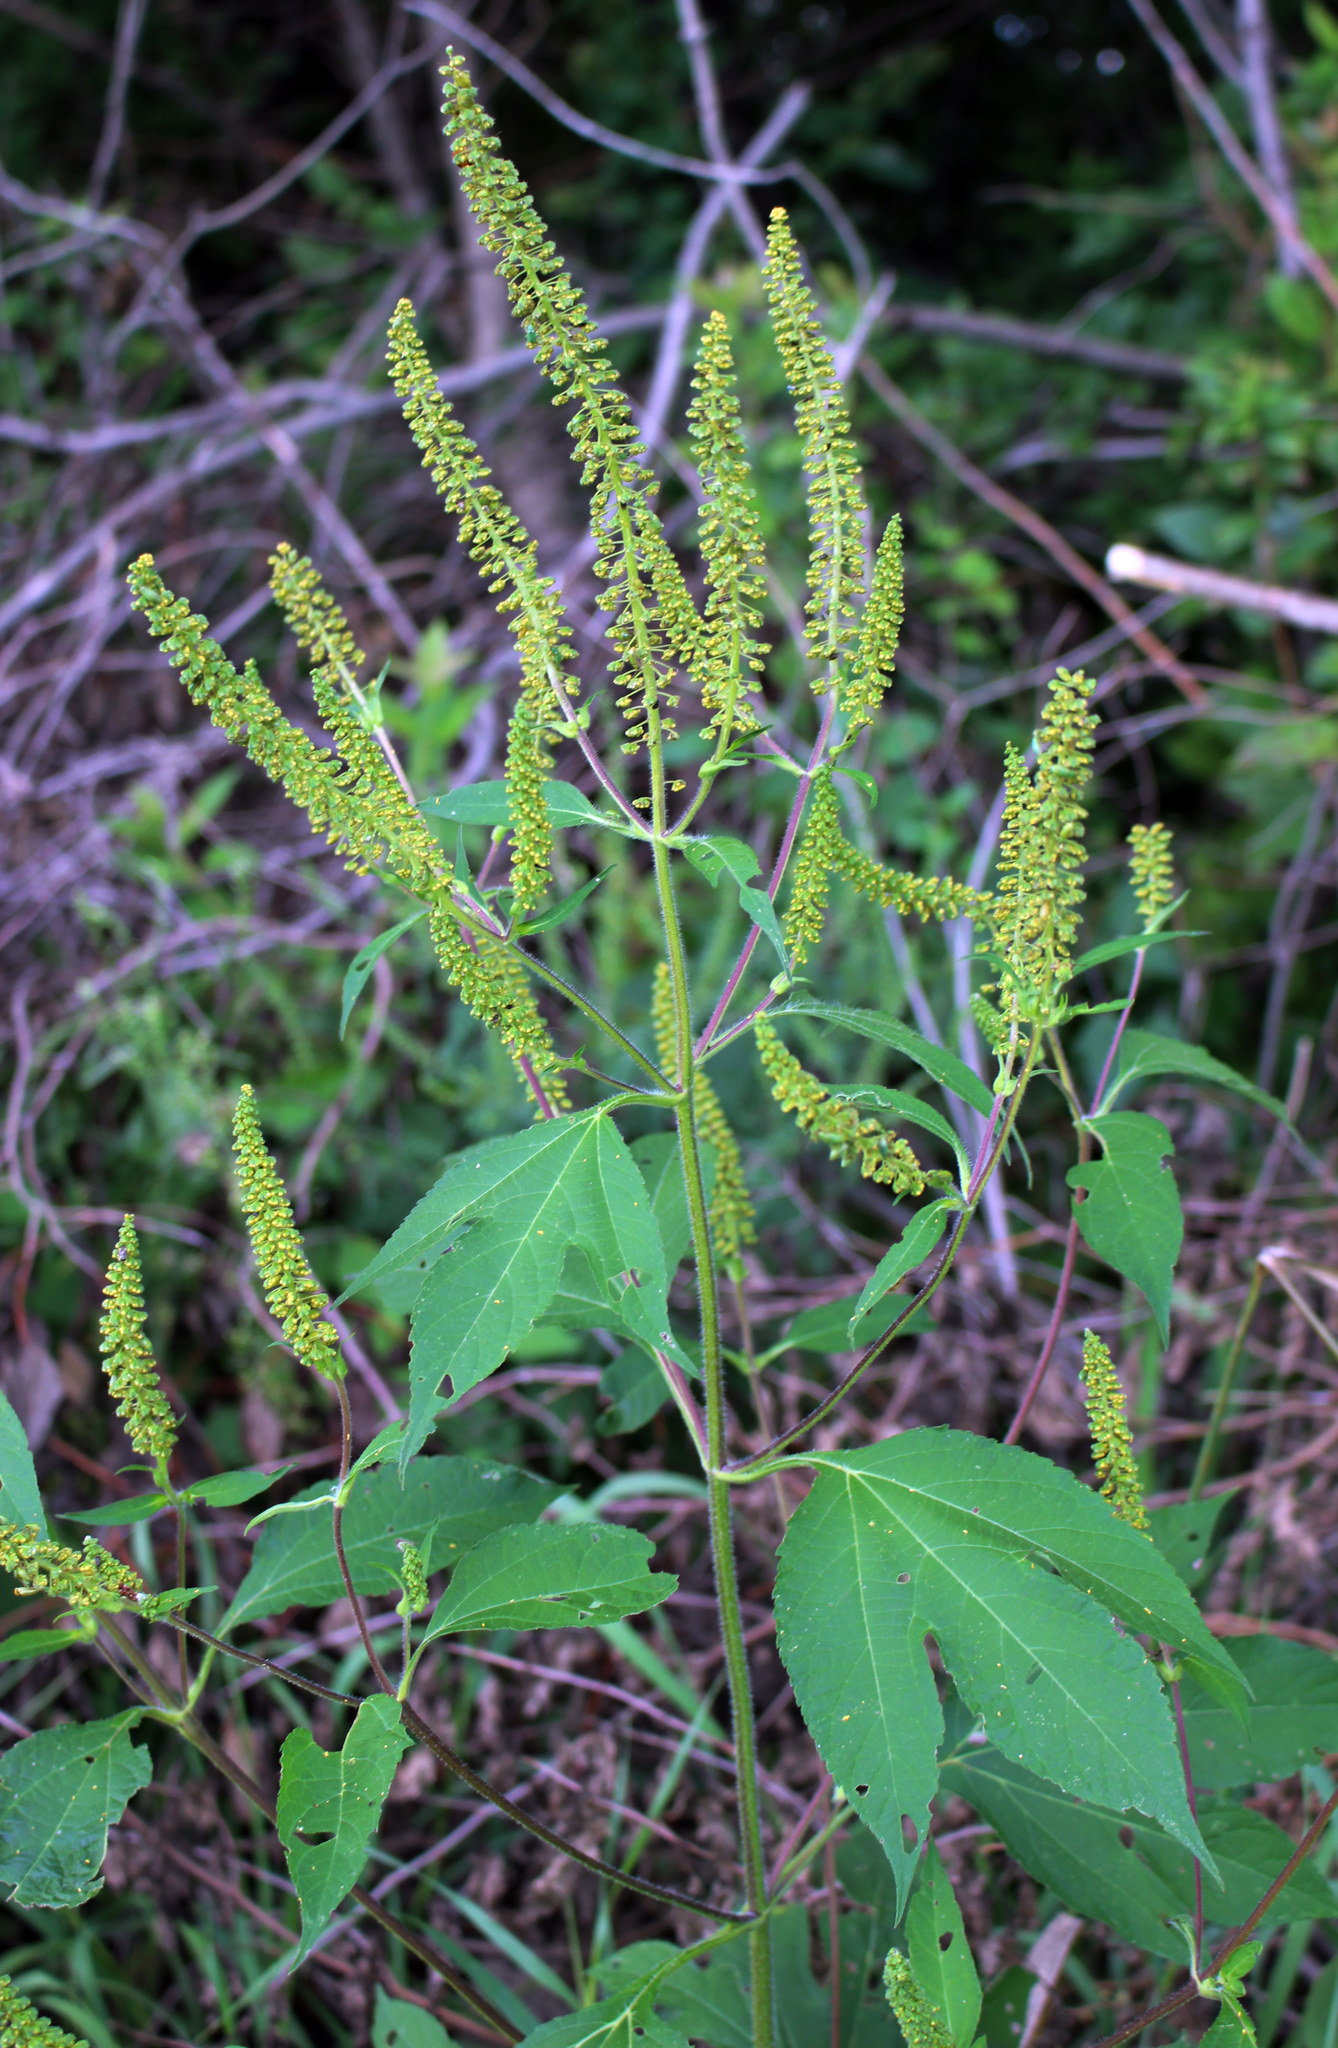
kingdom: Plantae
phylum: Tracheophyta
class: Magnoliopsida
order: Asterales
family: Asteraceae
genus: Ambrosia
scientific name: Ambrosia trifida
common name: Giant ragweed
